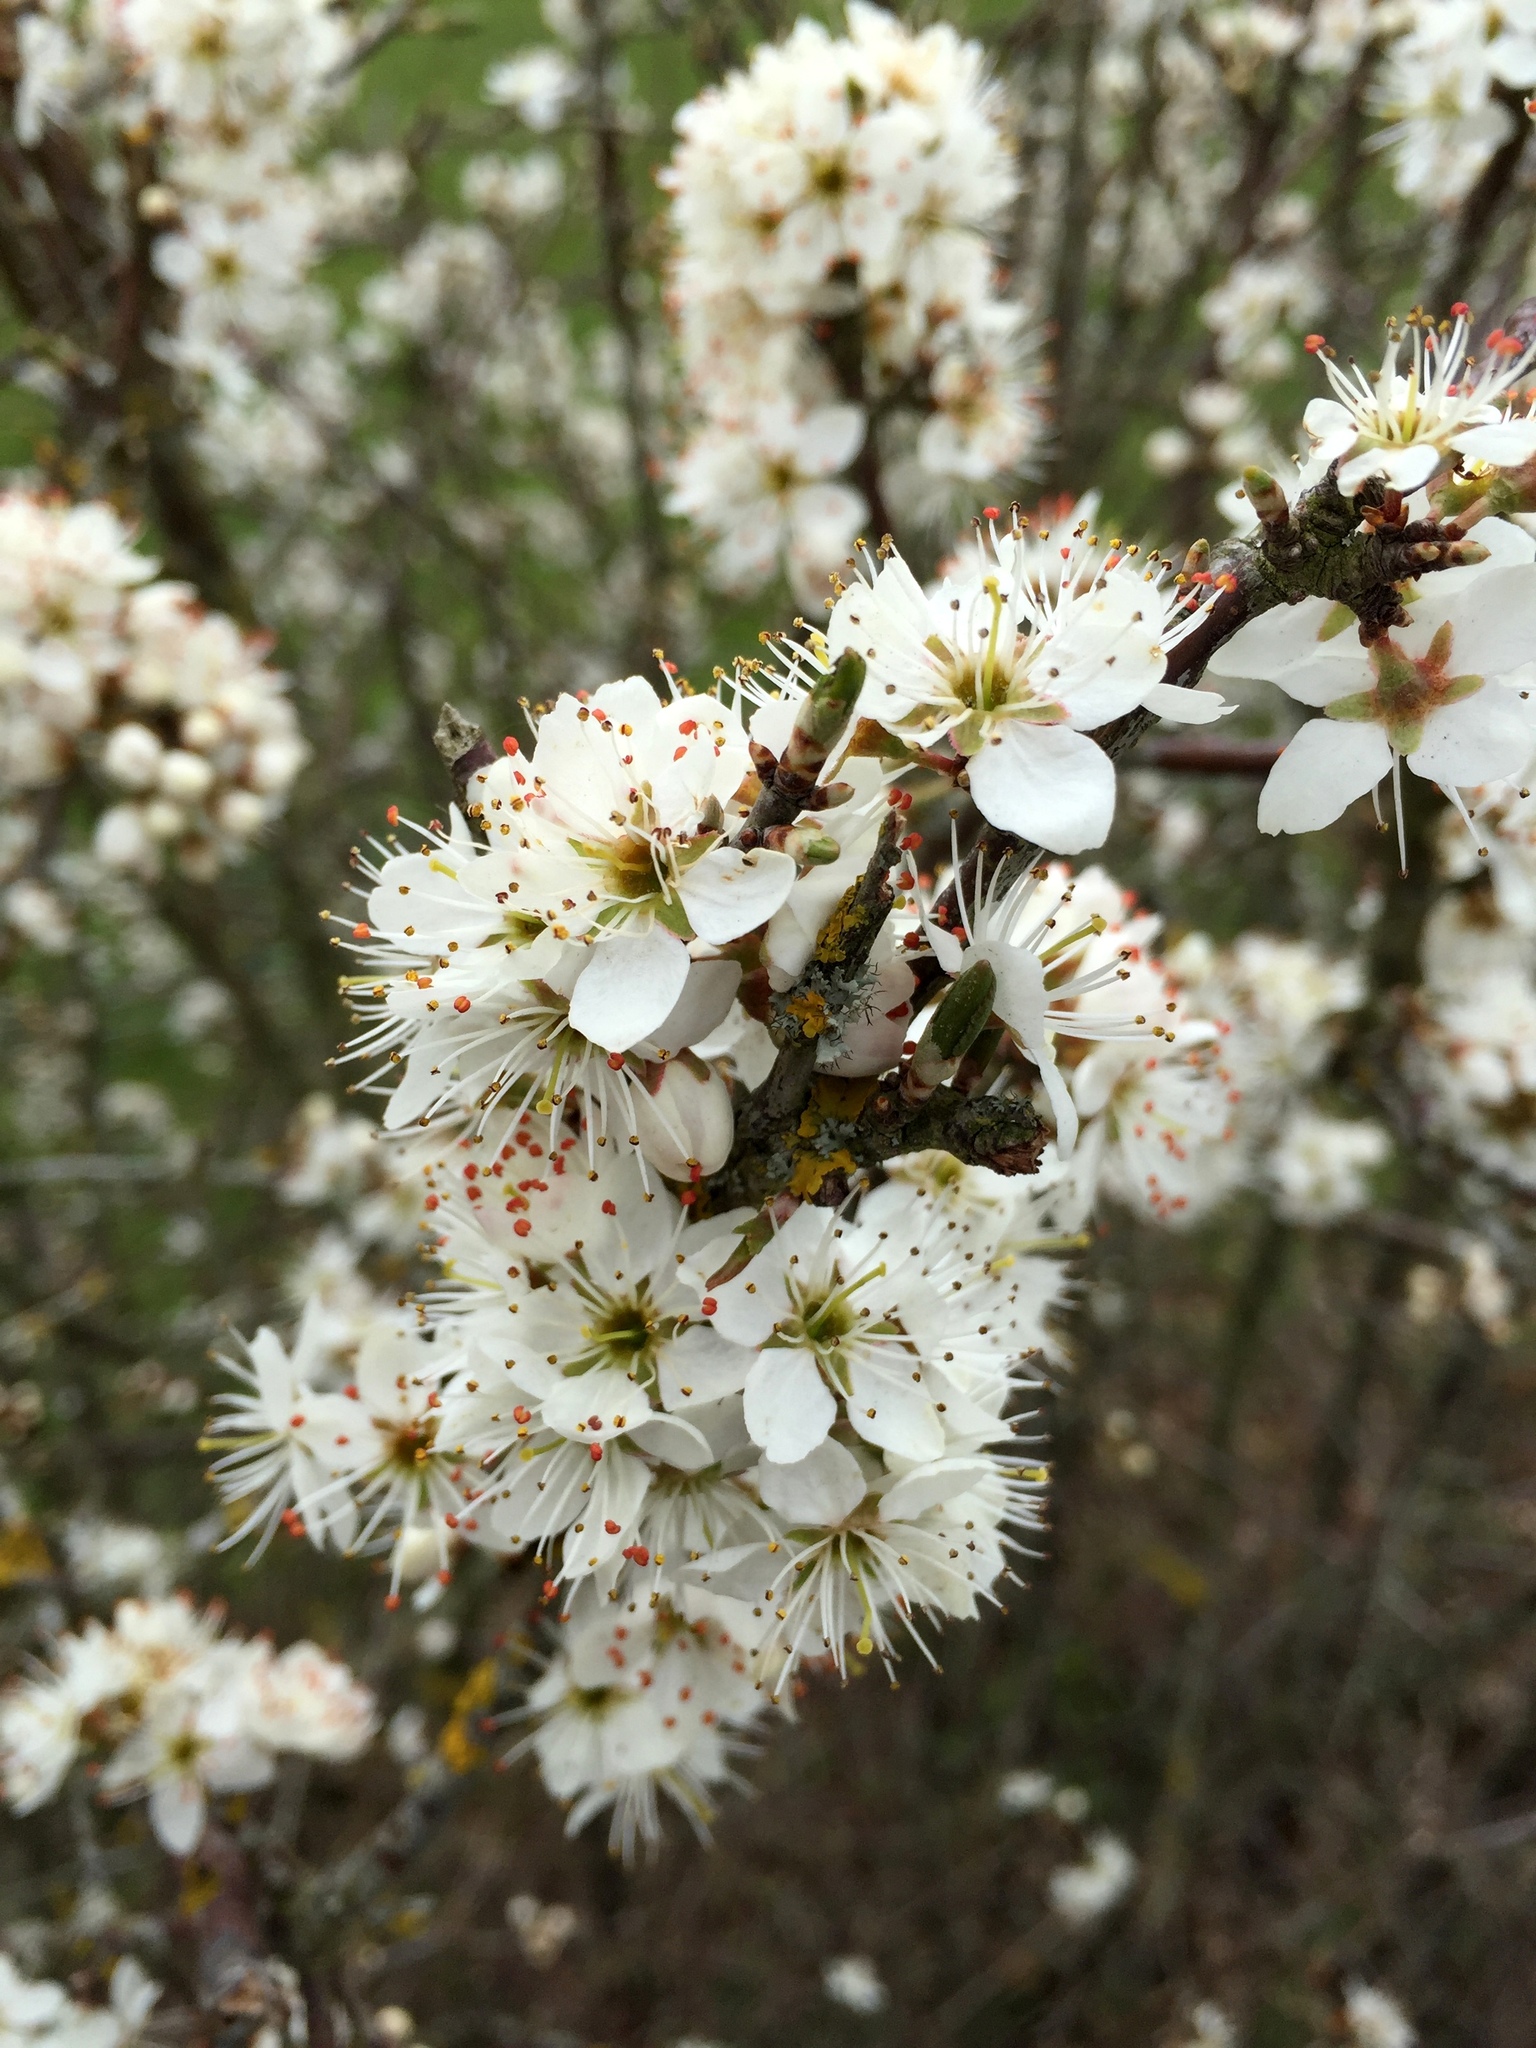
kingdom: Plantae
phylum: Tracheophyta
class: Magnoliopsida
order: Rosales
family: Rosaceae
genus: Prunus
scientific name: Prunus spinosa
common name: Blackthorn
